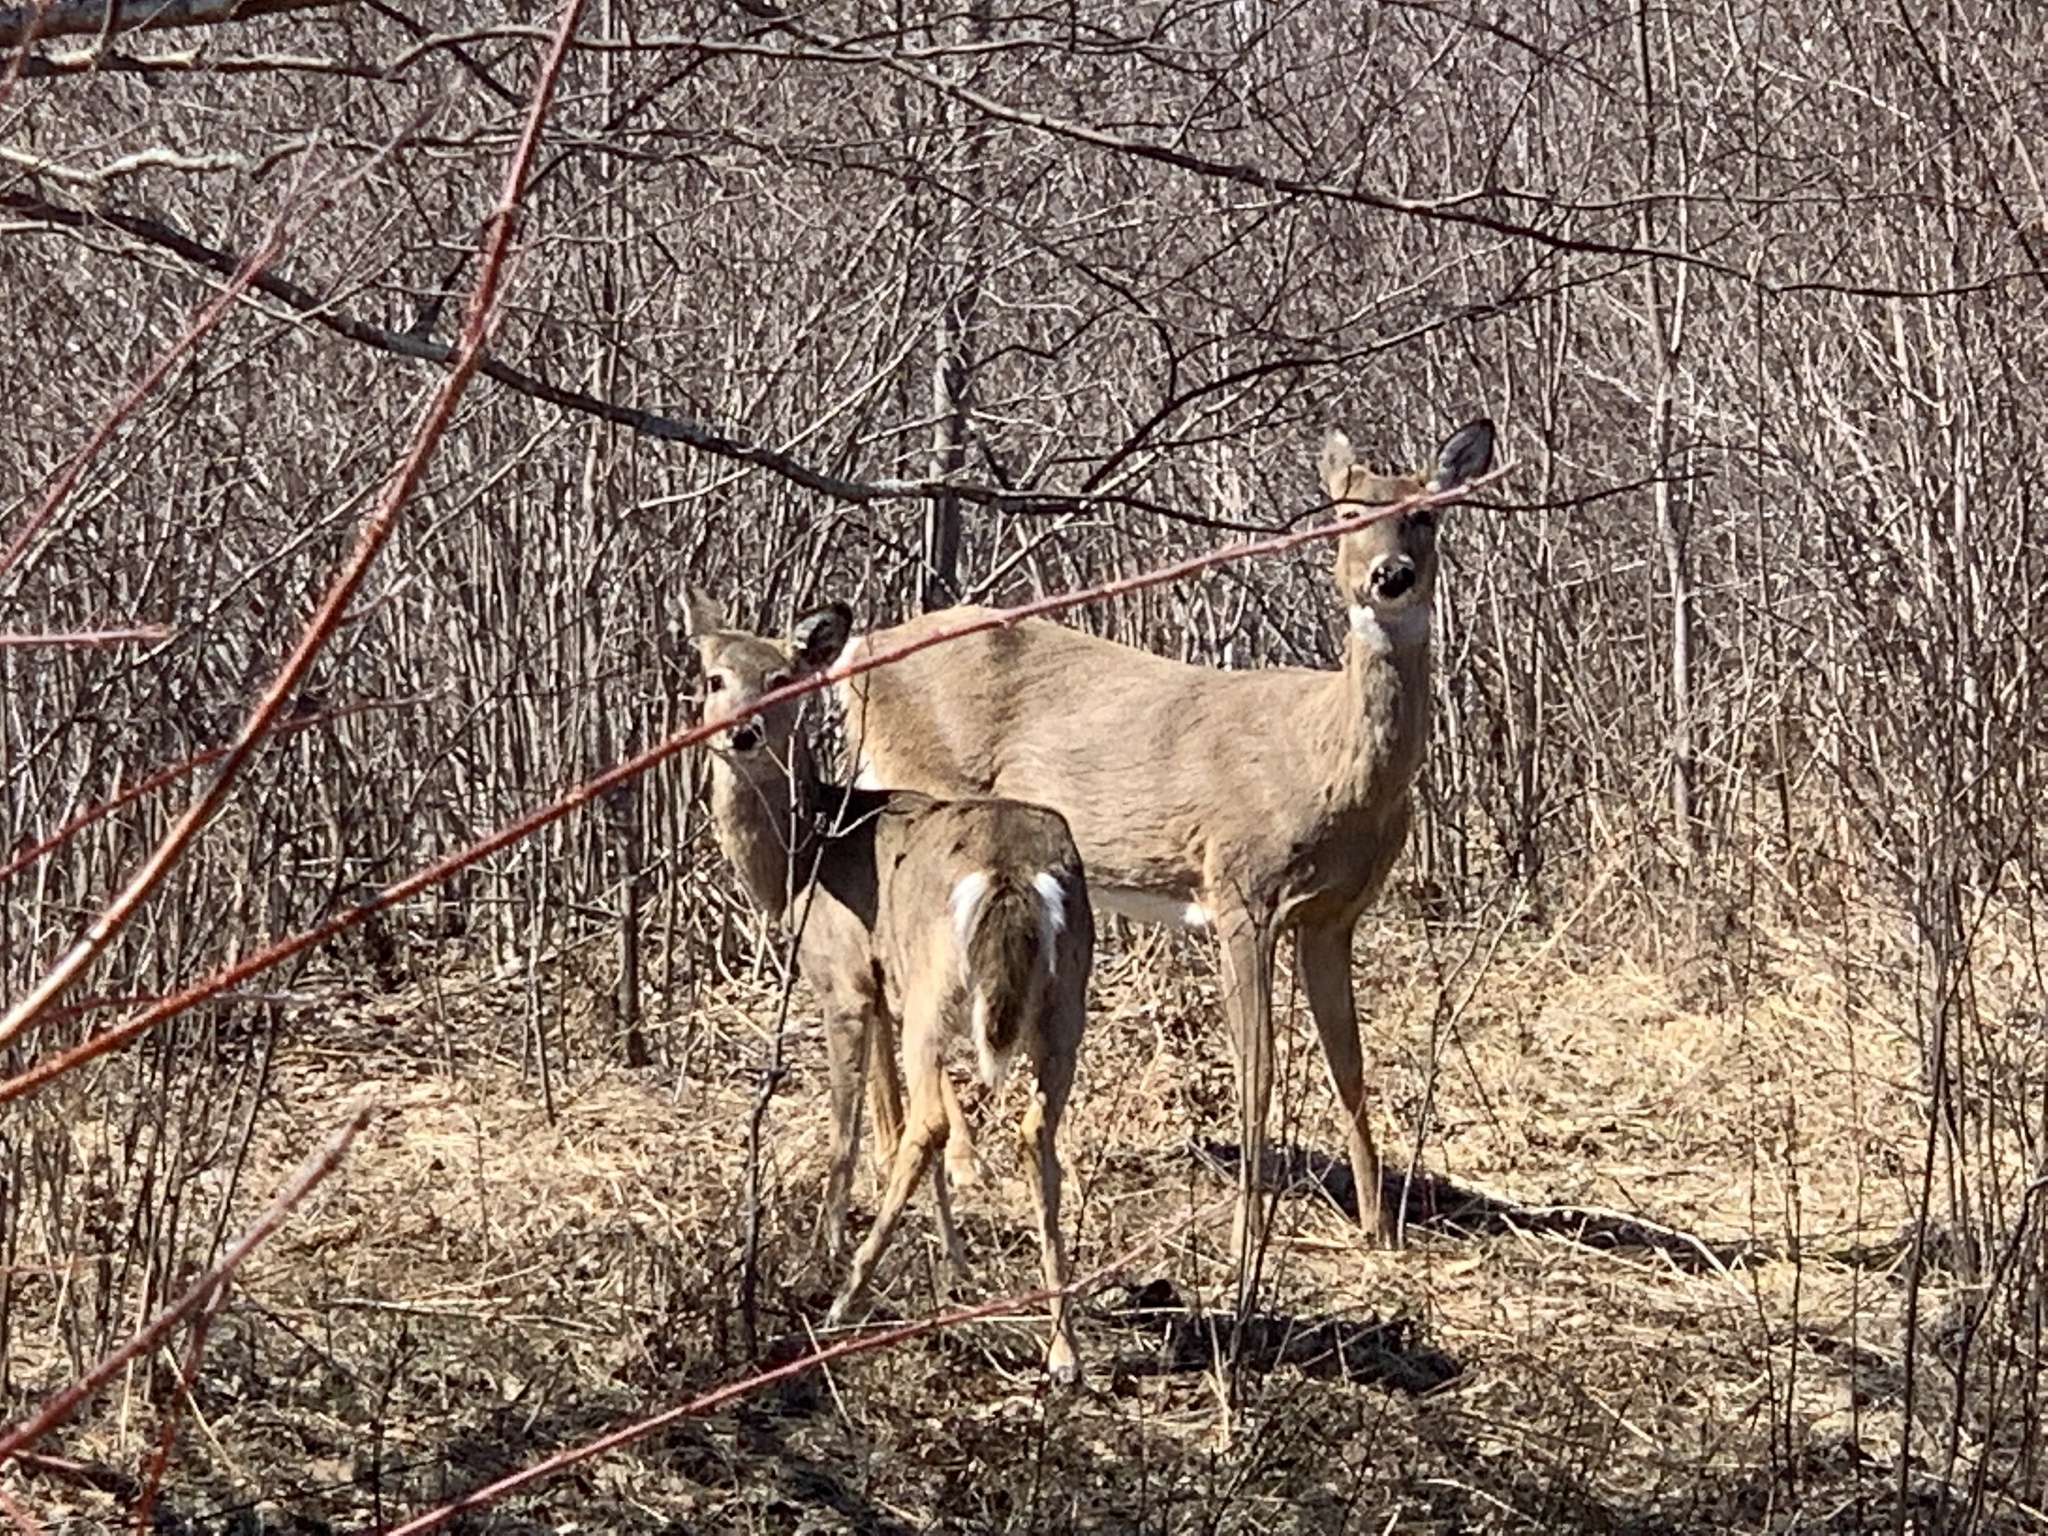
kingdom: Animalia
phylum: Chordata
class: Mammalia
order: Artiodactyla
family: Cervidae
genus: Odocoileus
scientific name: Odocoileus virginianus
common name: White-tailed deer
